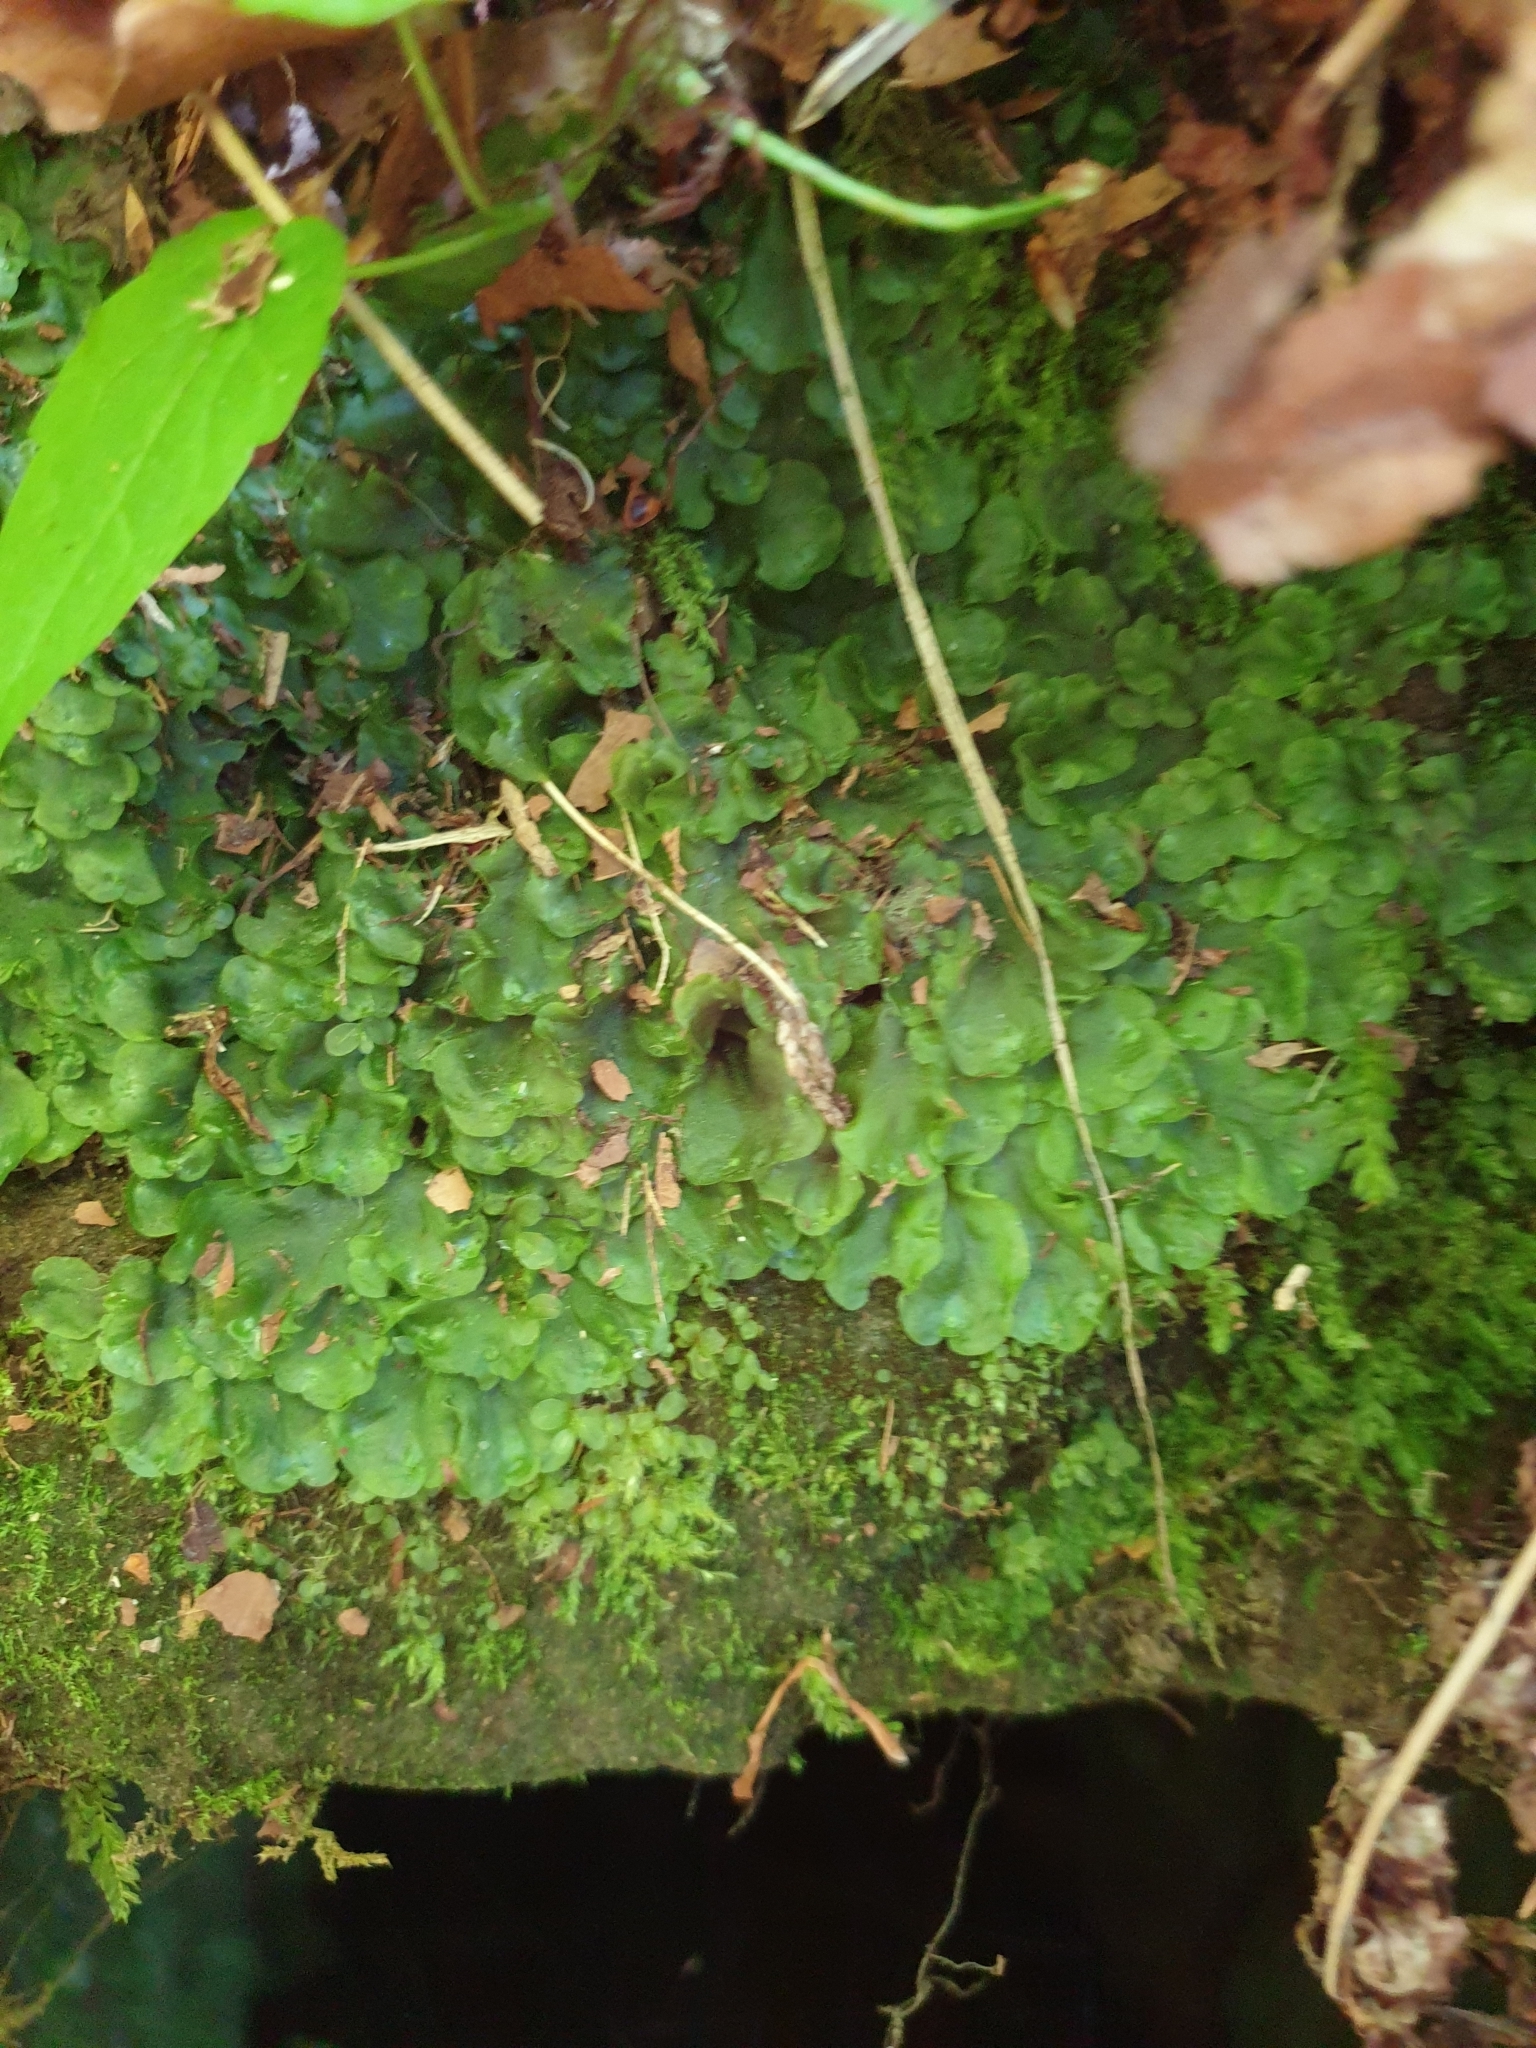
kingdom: Plantae
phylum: Marchantiophyta
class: Jungermanniopsida
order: Pelliales
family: Pelliaceae
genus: Pellia
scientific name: Pellia epiphylla
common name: Common pellia
